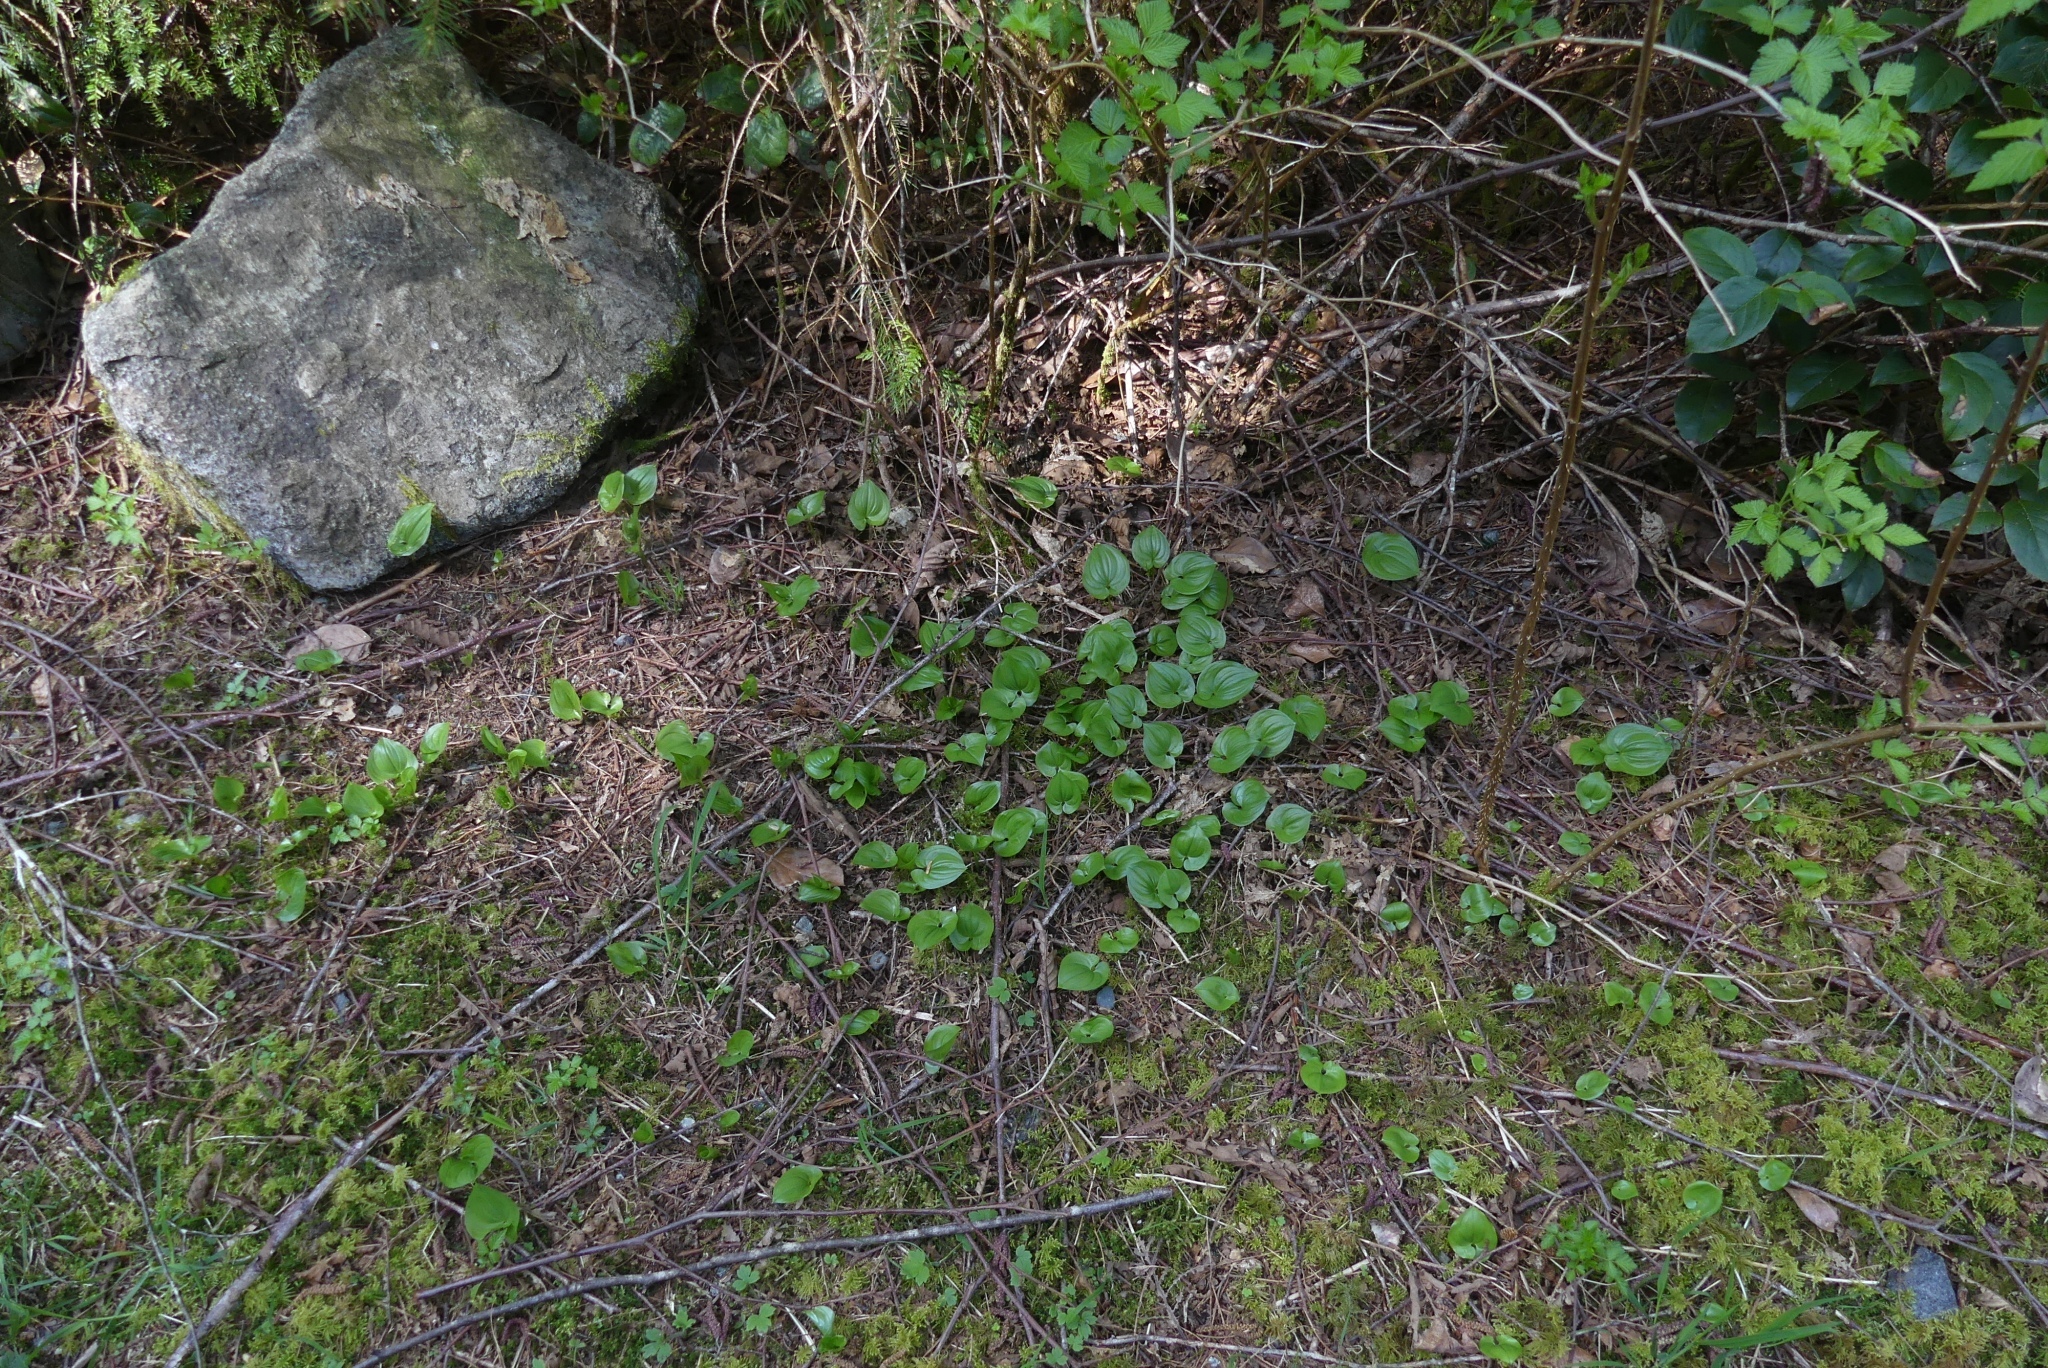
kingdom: Plantae
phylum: Tracheophyta
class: Liliopsida
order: Asparagales
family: Asparagaceae
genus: Maianthemum
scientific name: Maianthemum dilatatum
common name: False lily-of-the-valley
